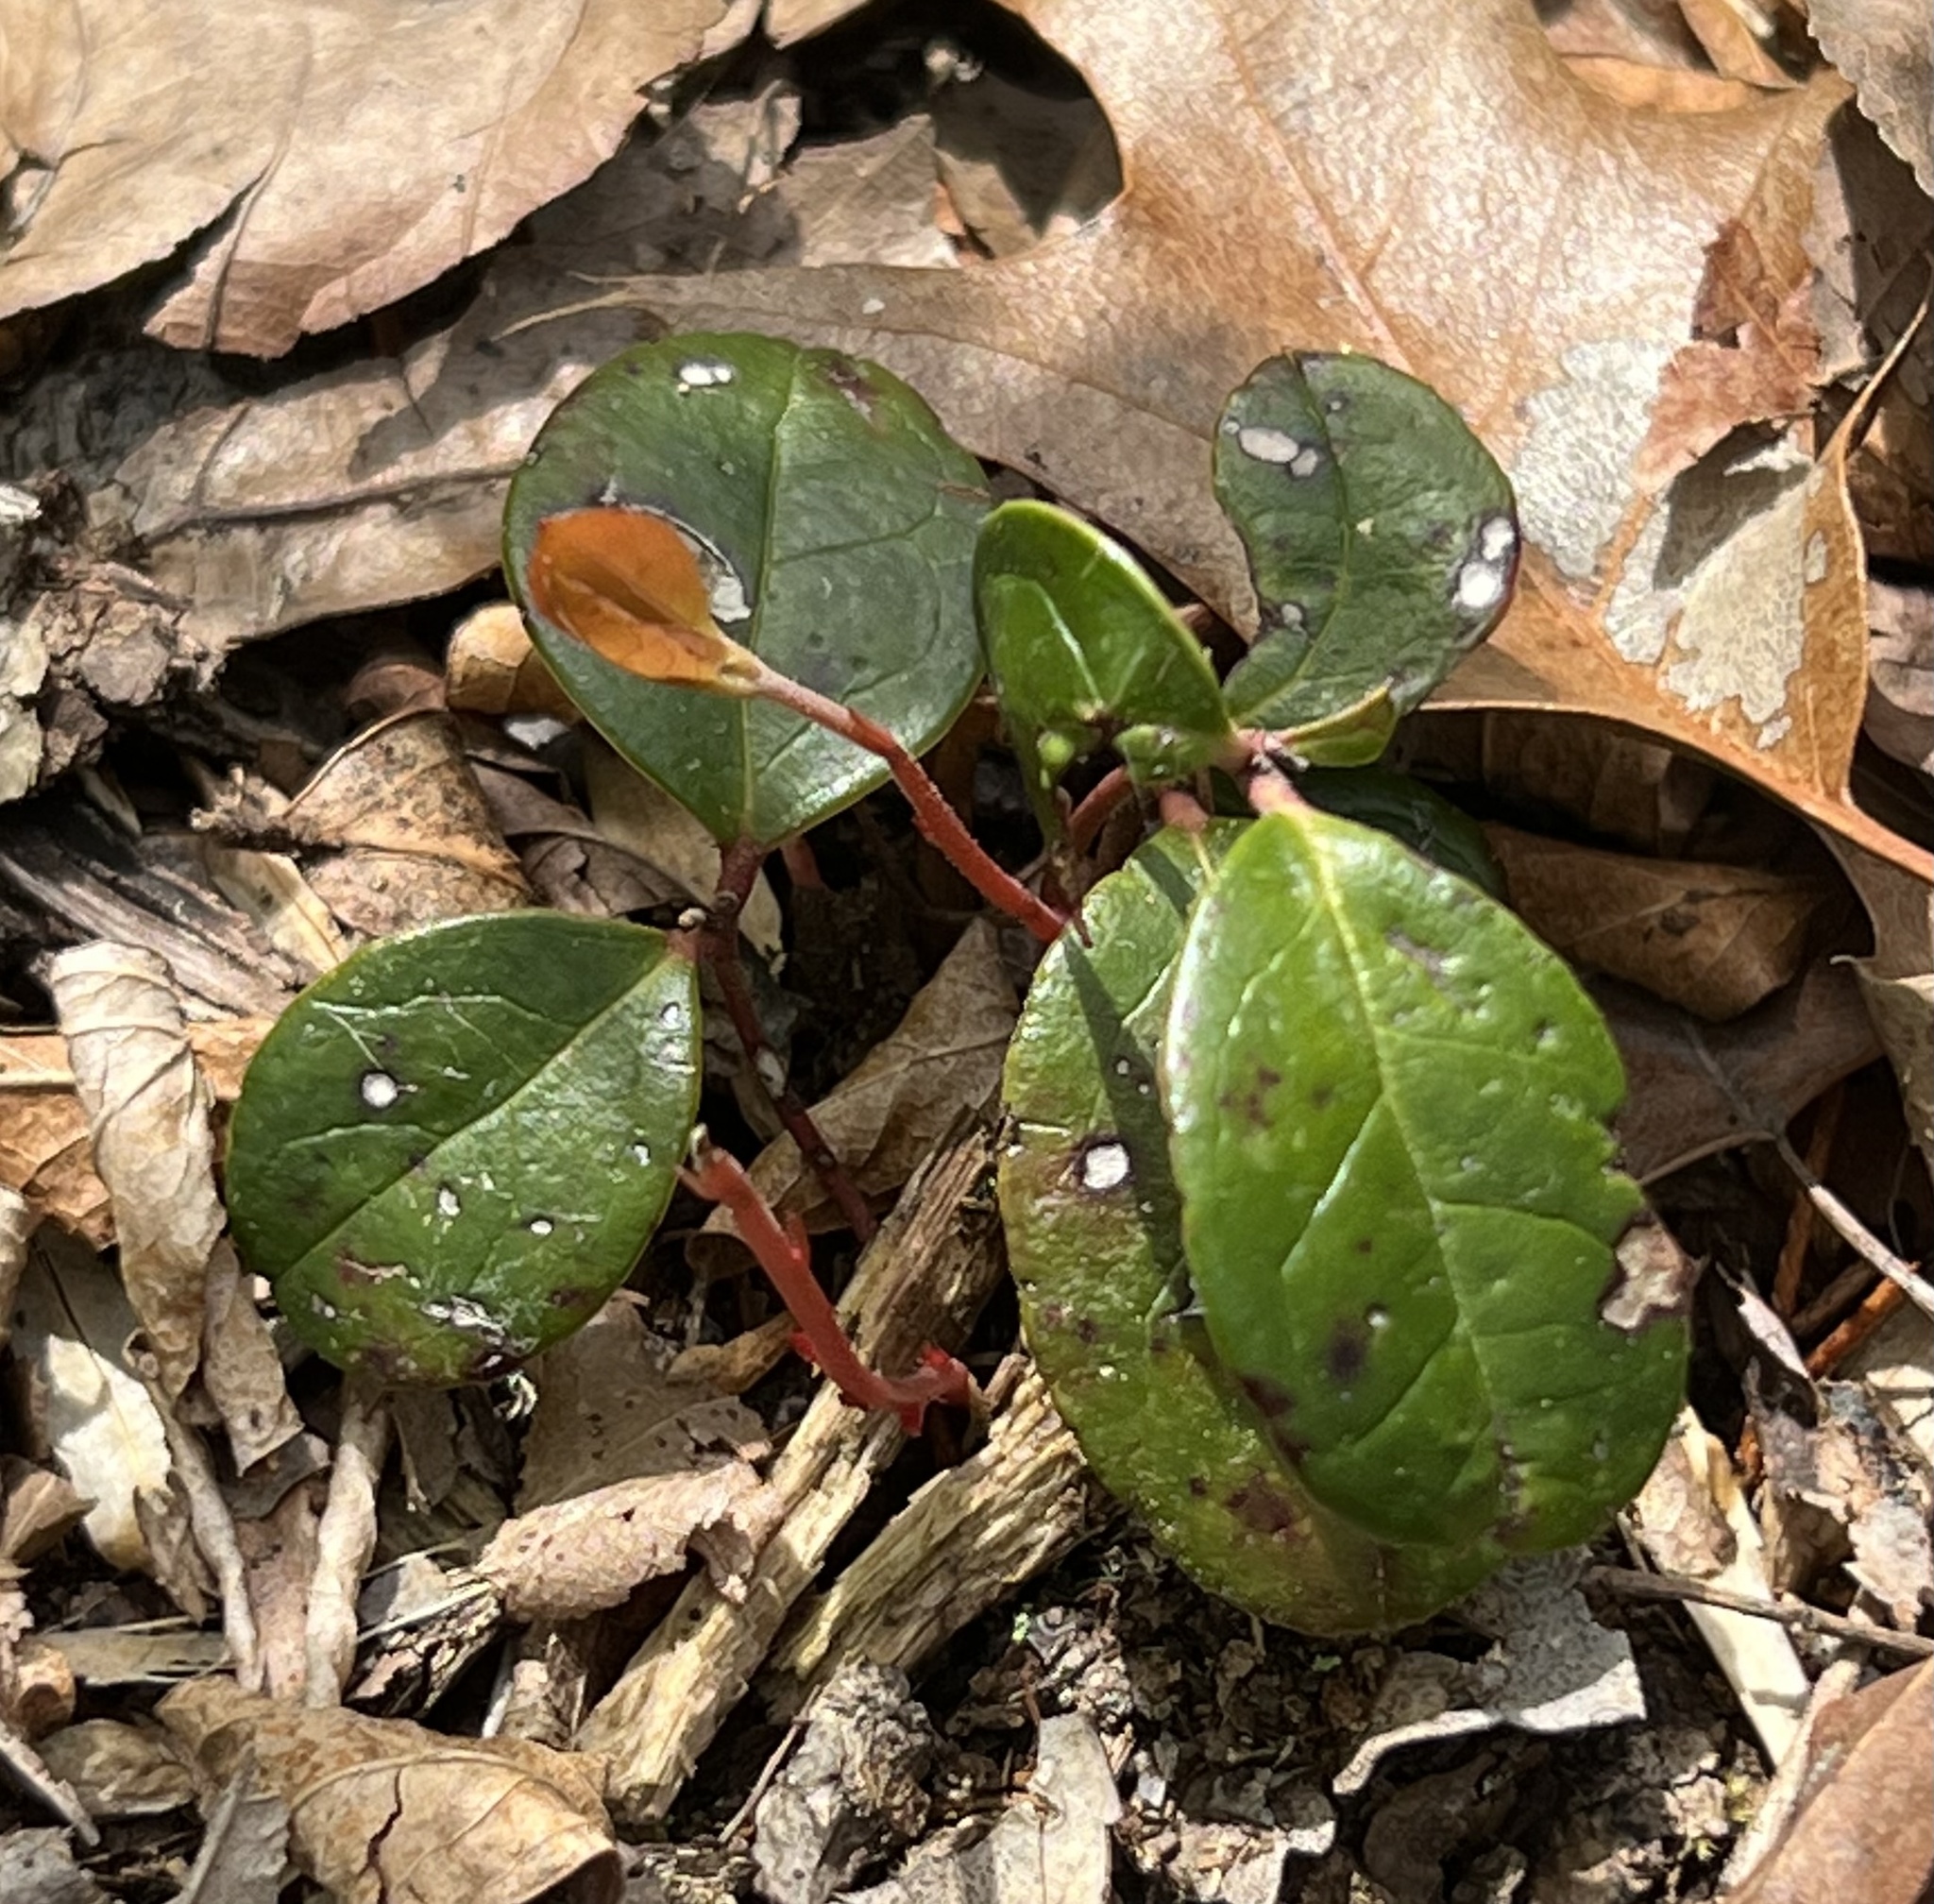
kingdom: Plantae
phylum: Tracheophyta
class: Magnoliopsida
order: Ericales
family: Ericaceae
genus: Gaultheria
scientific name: Gaultheria procumbens
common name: Checkerberry
